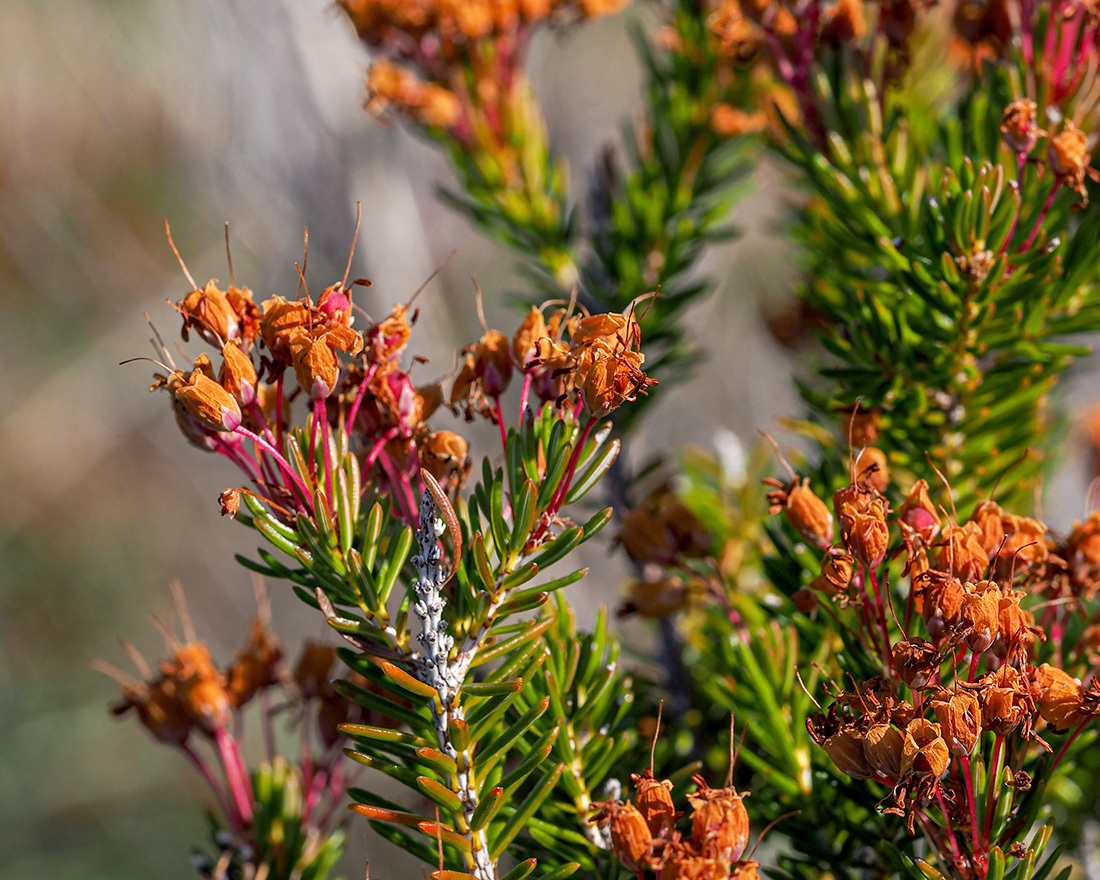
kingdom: Plantae
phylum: Tracheophyta
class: Magnoliopsida
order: Ericales
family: Ericaceae
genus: Erica
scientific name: Erica multiflora
